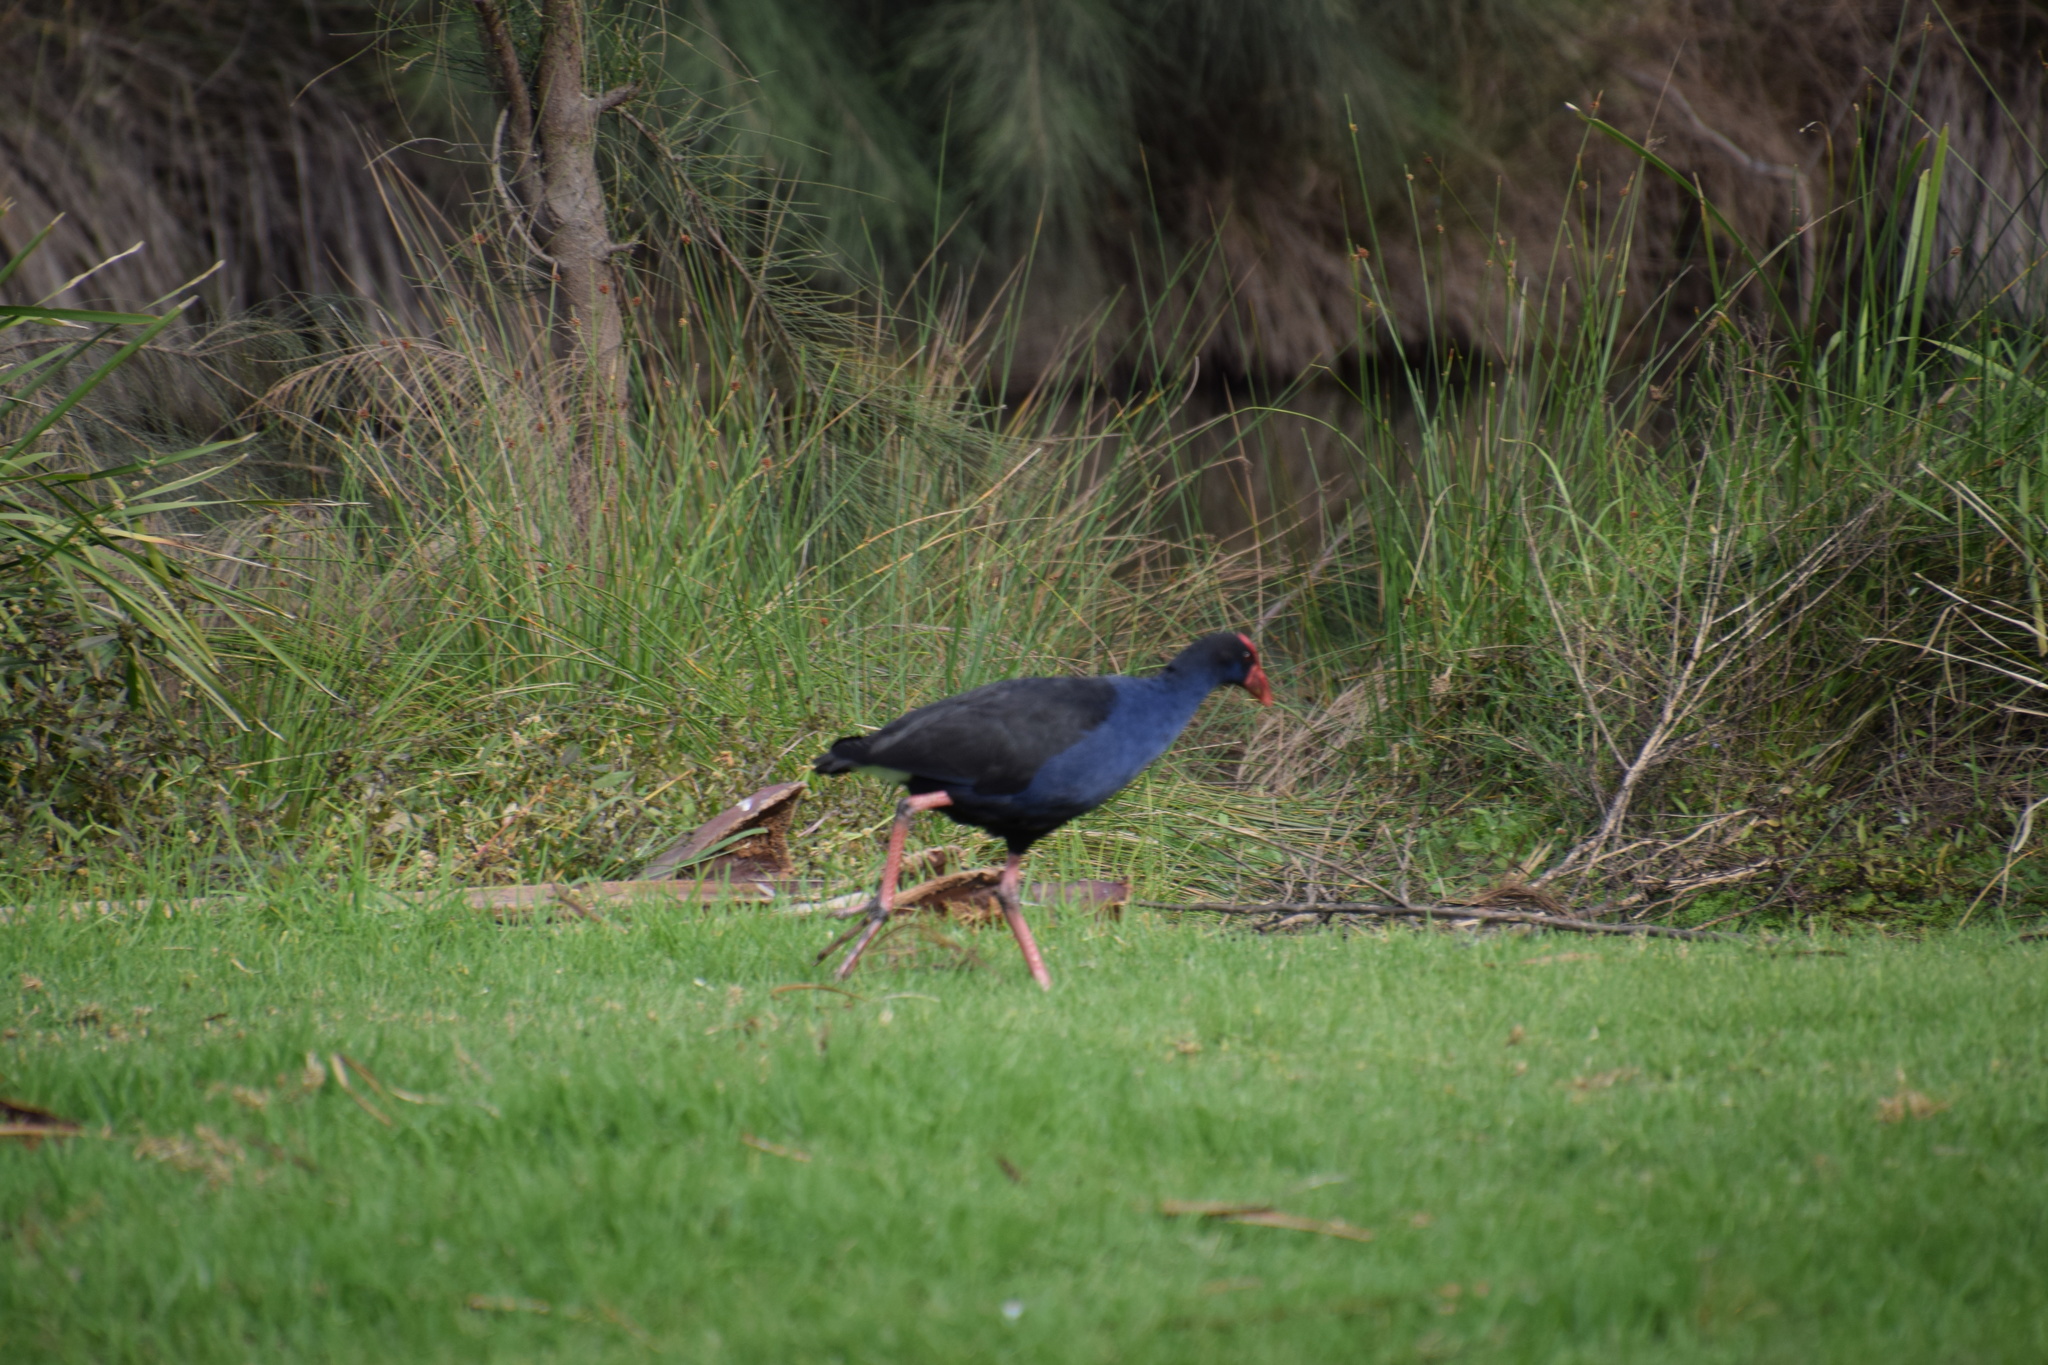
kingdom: Animalia
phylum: Chordata
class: Aves
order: Gruiformes
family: Rallidae
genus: Porphyrio
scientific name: Porphyrio melanotus
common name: Australasian swamphen
